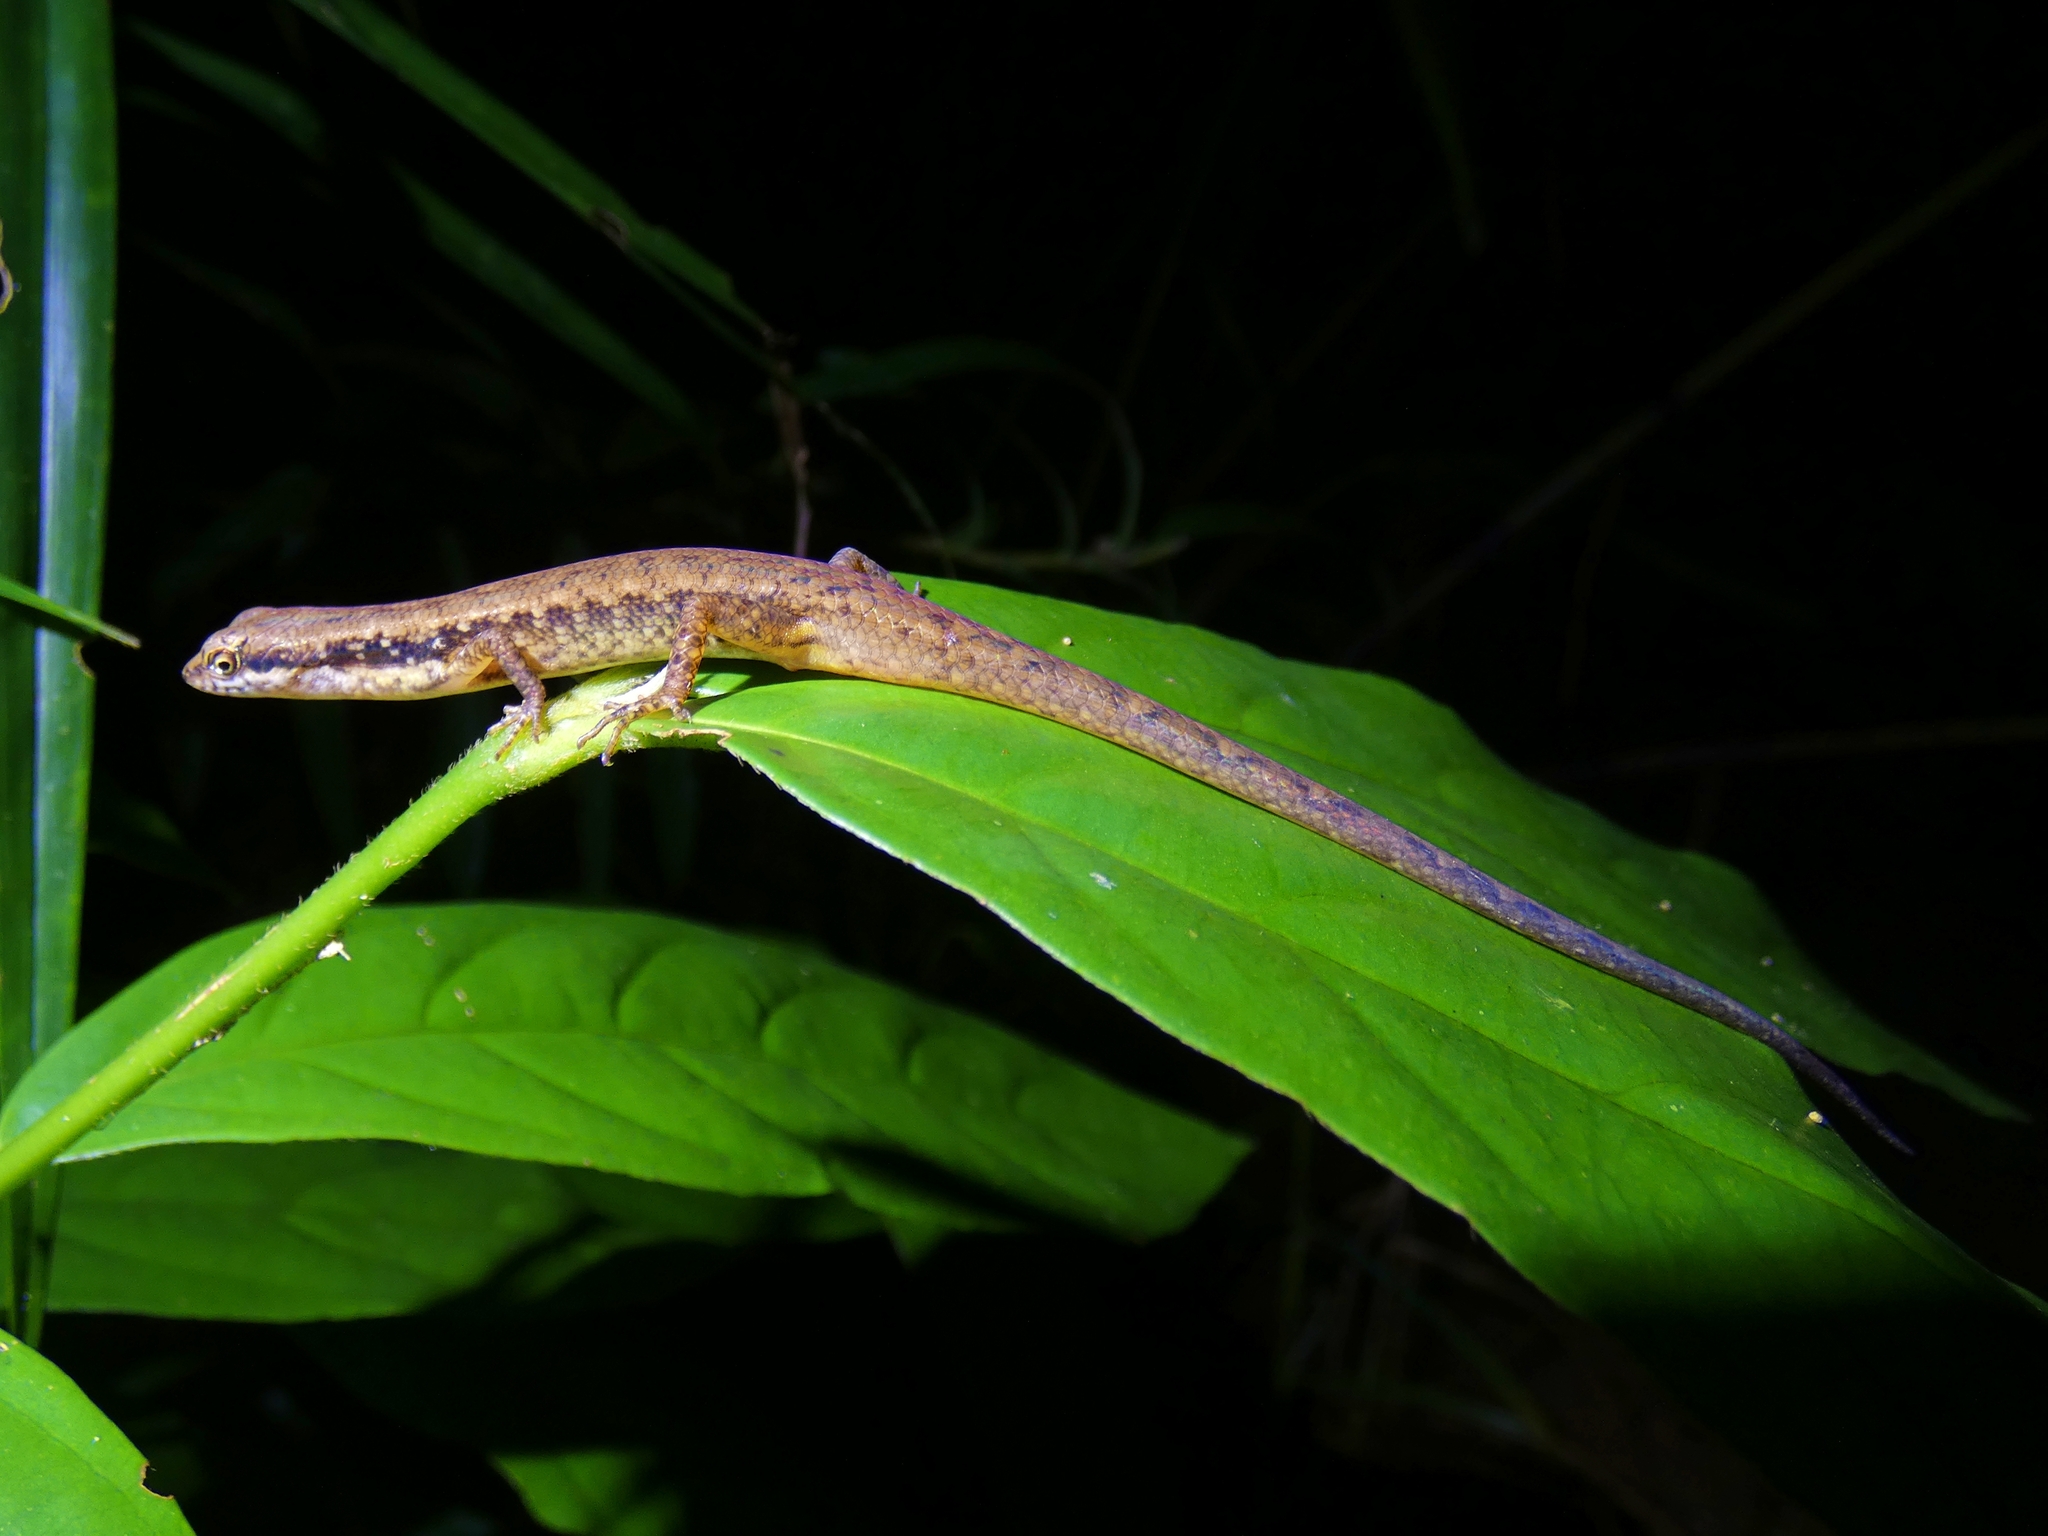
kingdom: Animalia
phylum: Chordata
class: Squamata
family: Scincidae
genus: Saproscincus
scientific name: Saproscincus basiliscus
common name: Pale-lipped shadeskink
